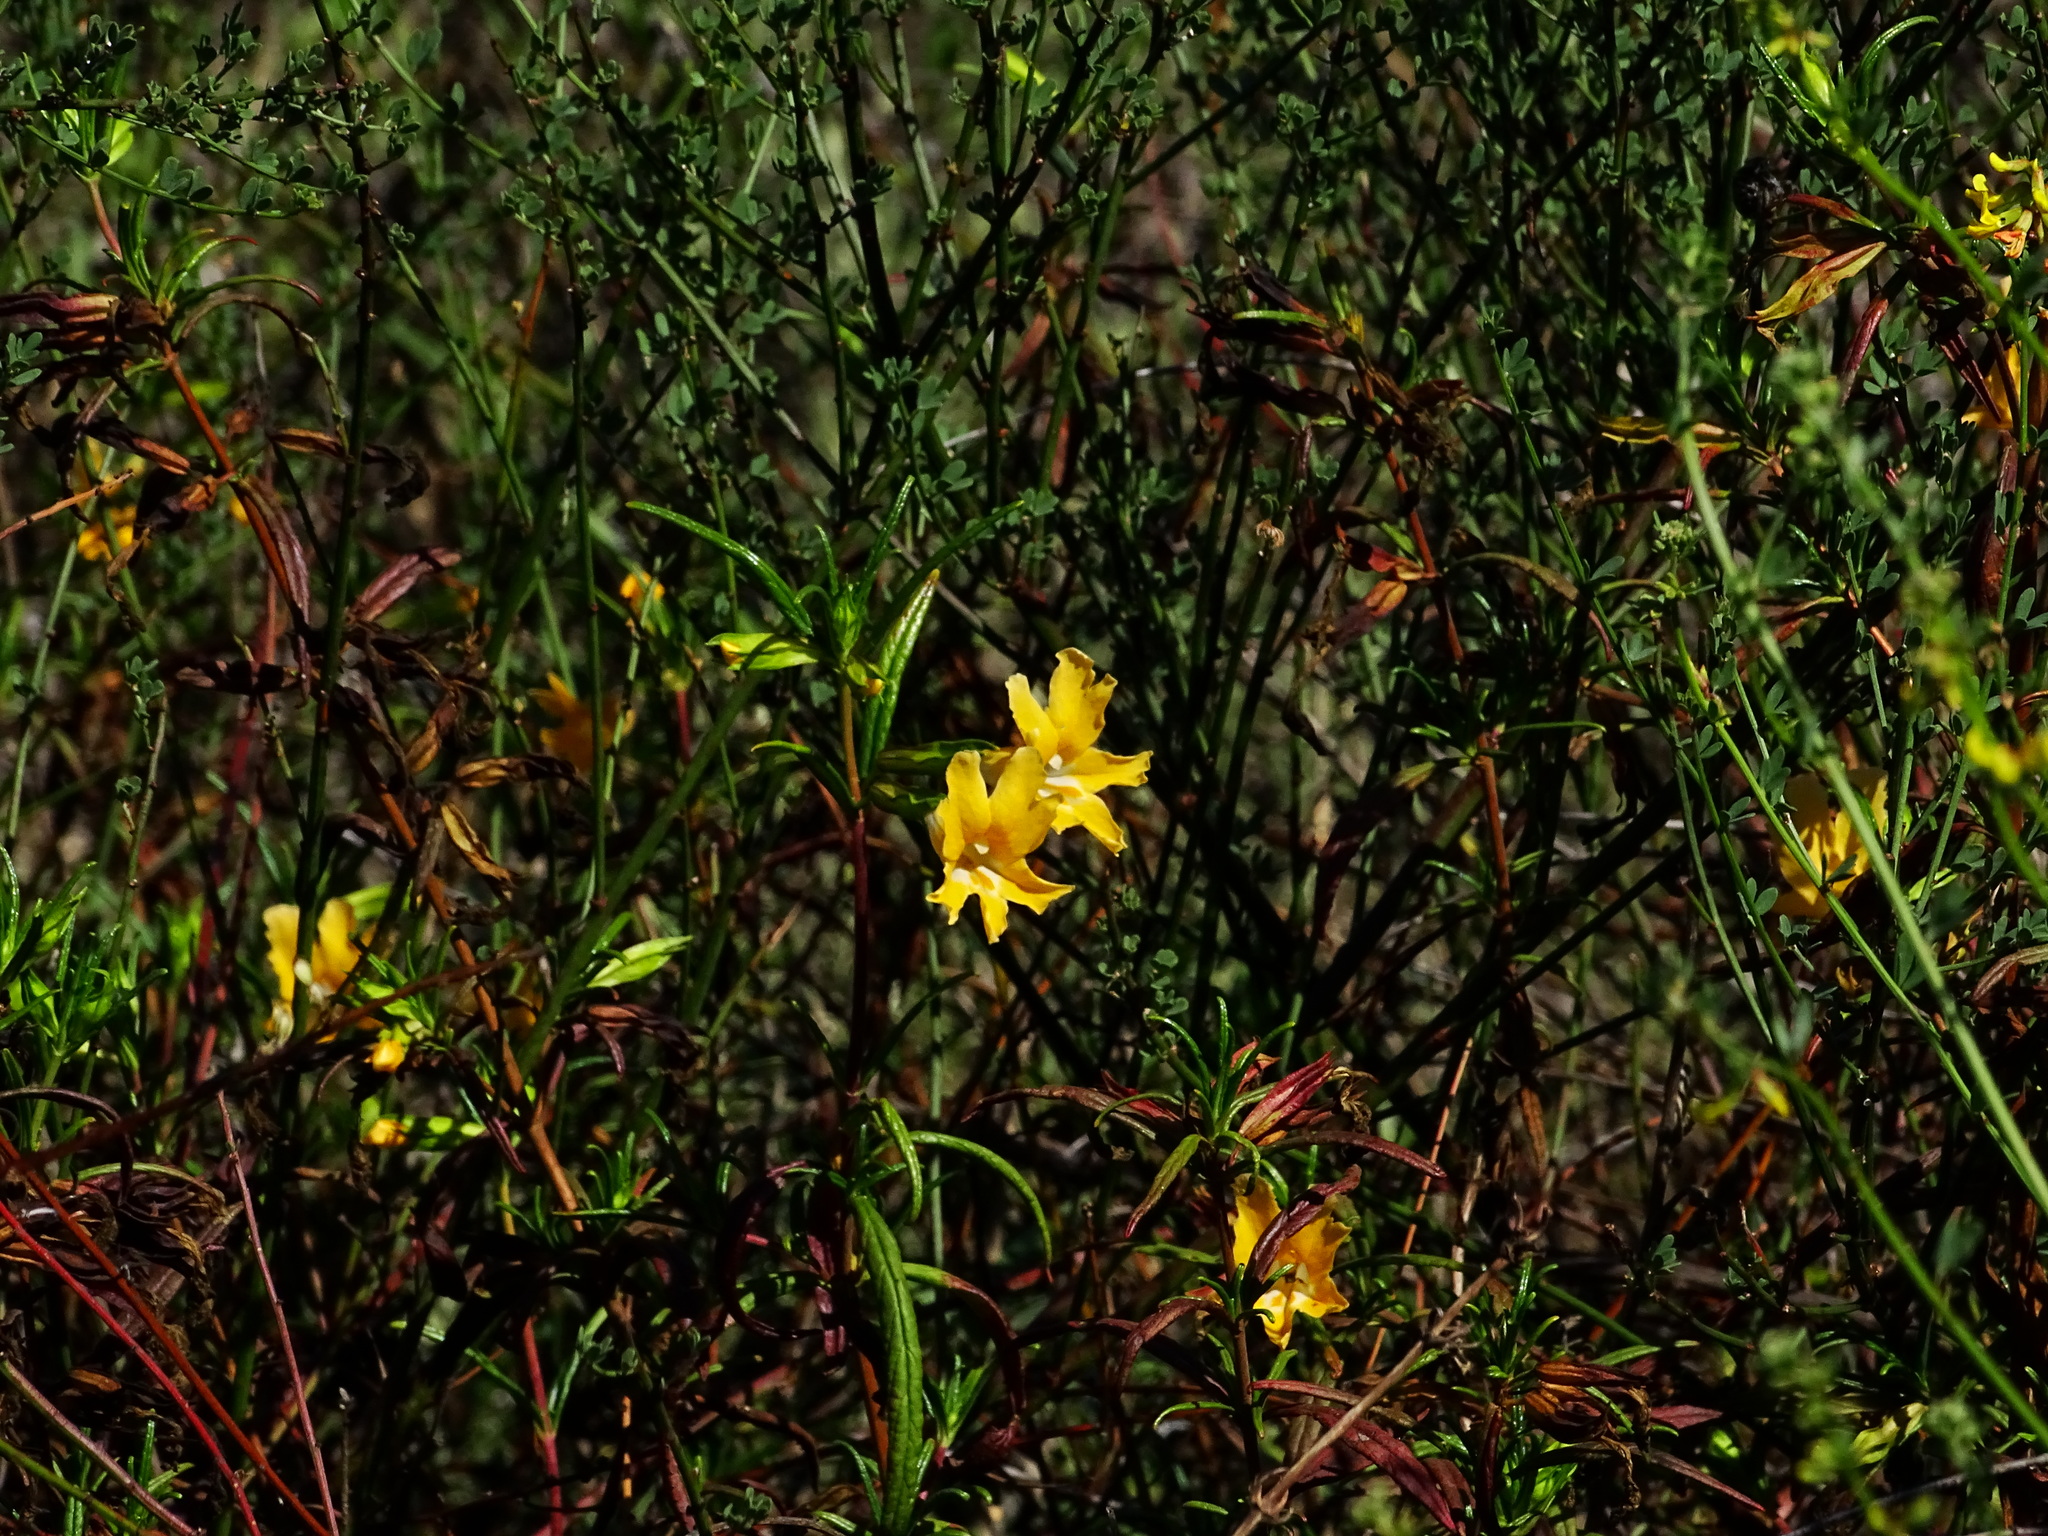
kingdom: Plantae
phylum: Tracheophyta
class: Magnoliopsida
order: Lamiales
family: Phrymaceae
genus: Diplacus
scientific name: Diplacus australis
